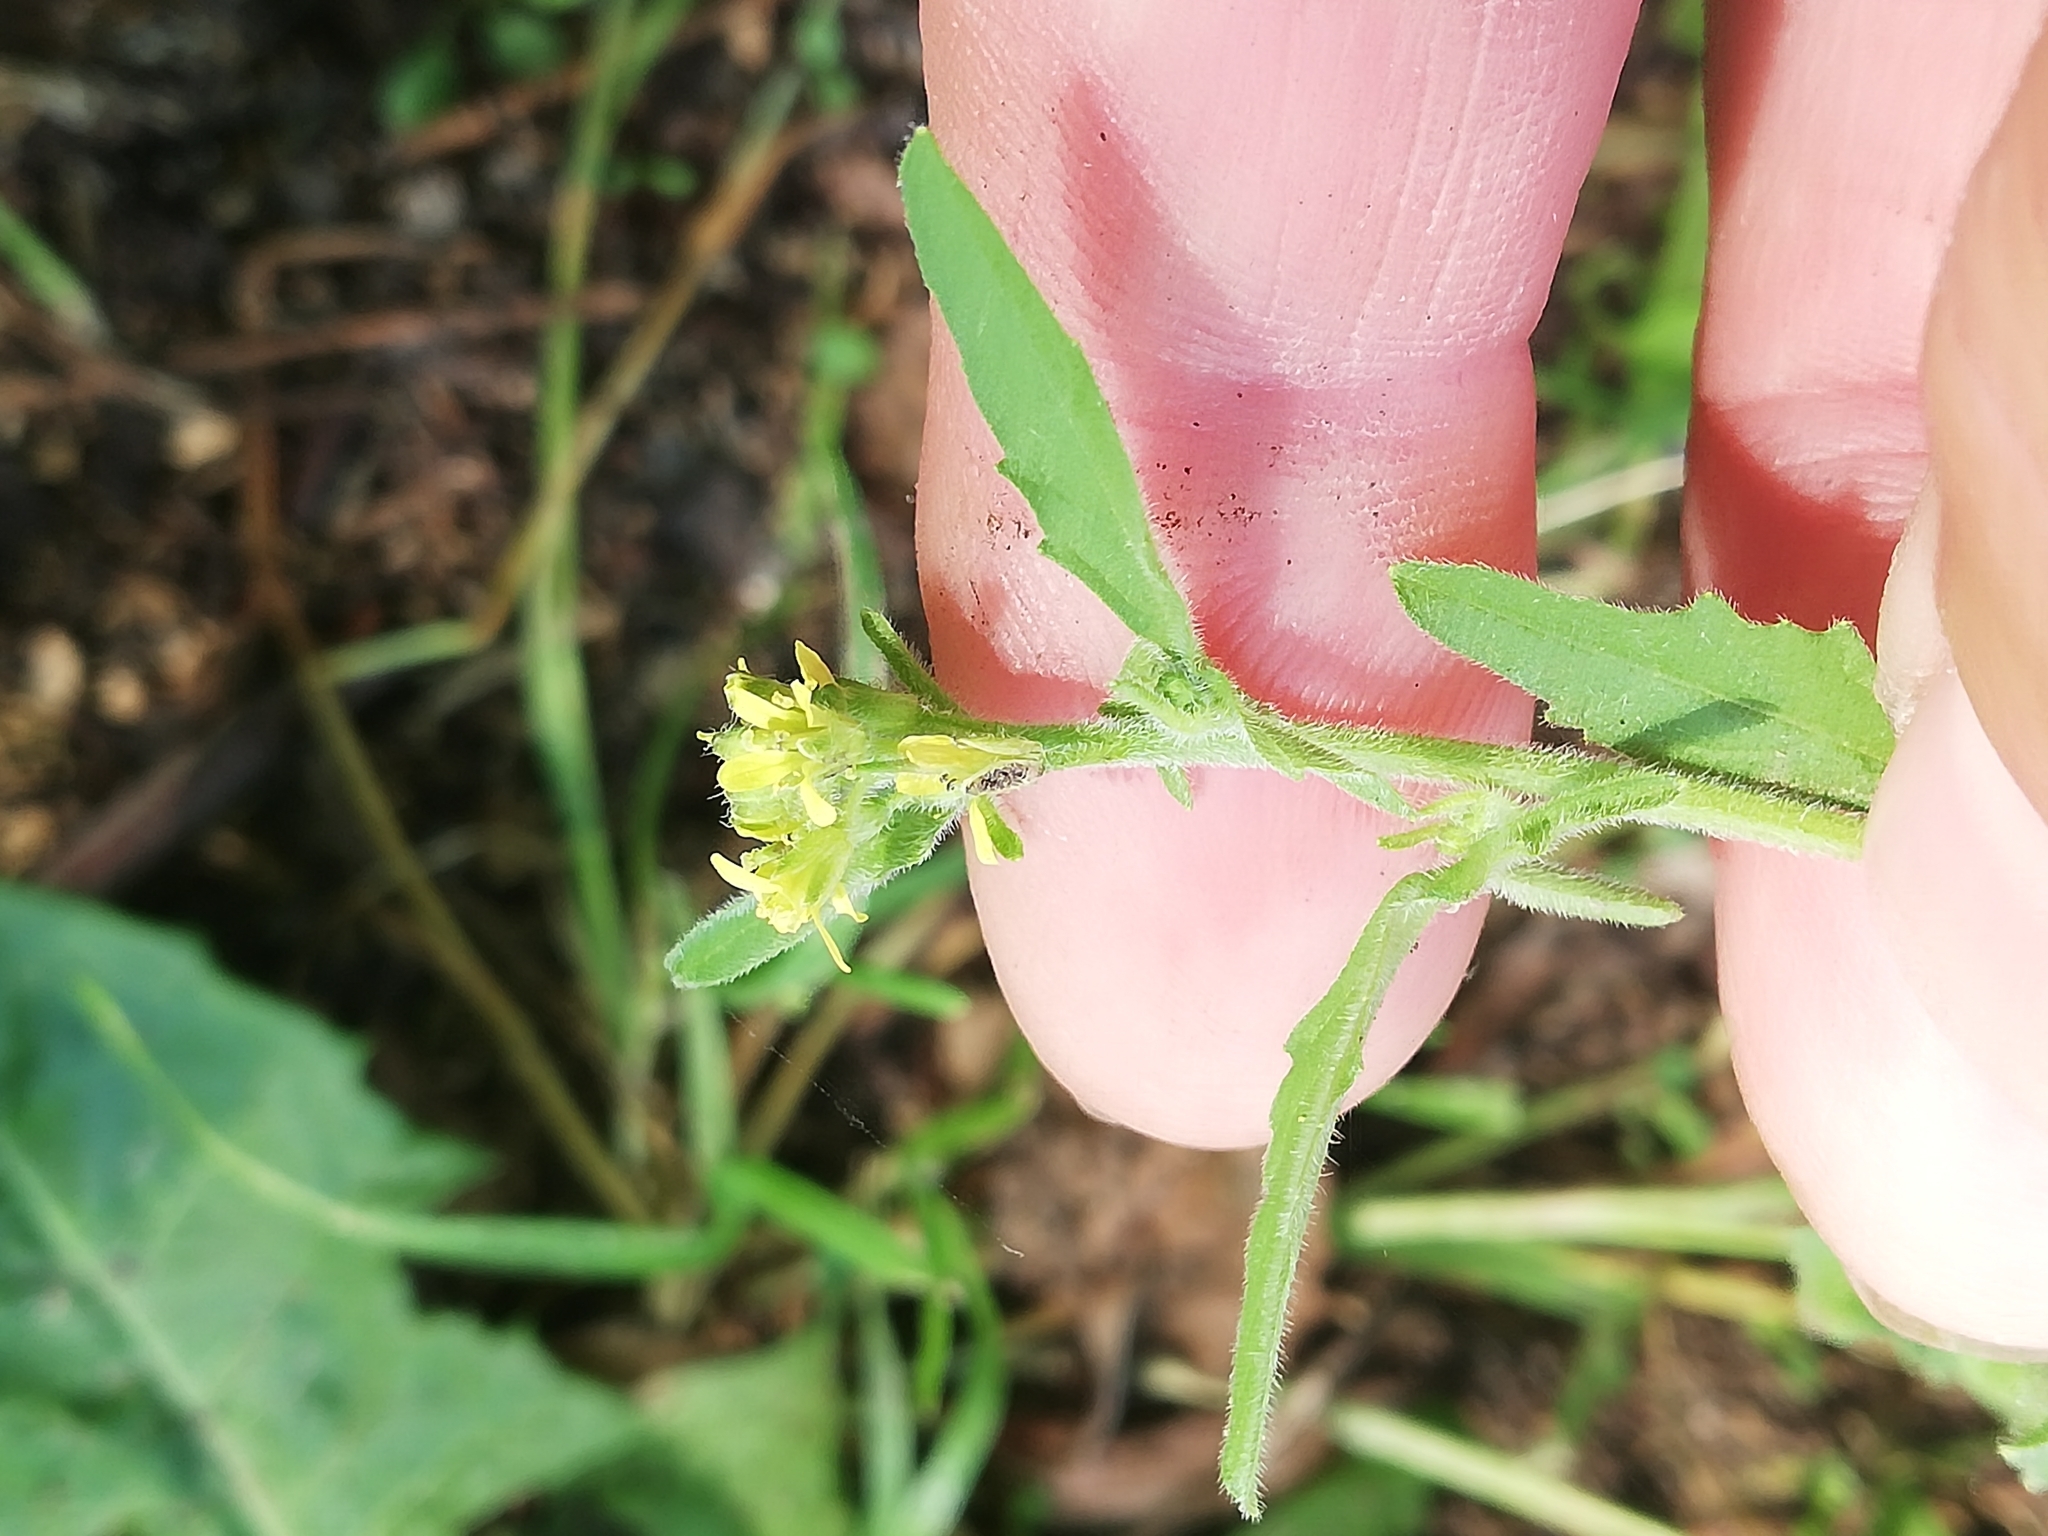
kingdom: Plantae
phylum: Tracheophyta
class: Magnoliopsida
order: Brassicales
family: Brassicaceae
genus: Sisymbrium
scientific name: Sisymbrium officinale
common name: Hedge mustard
